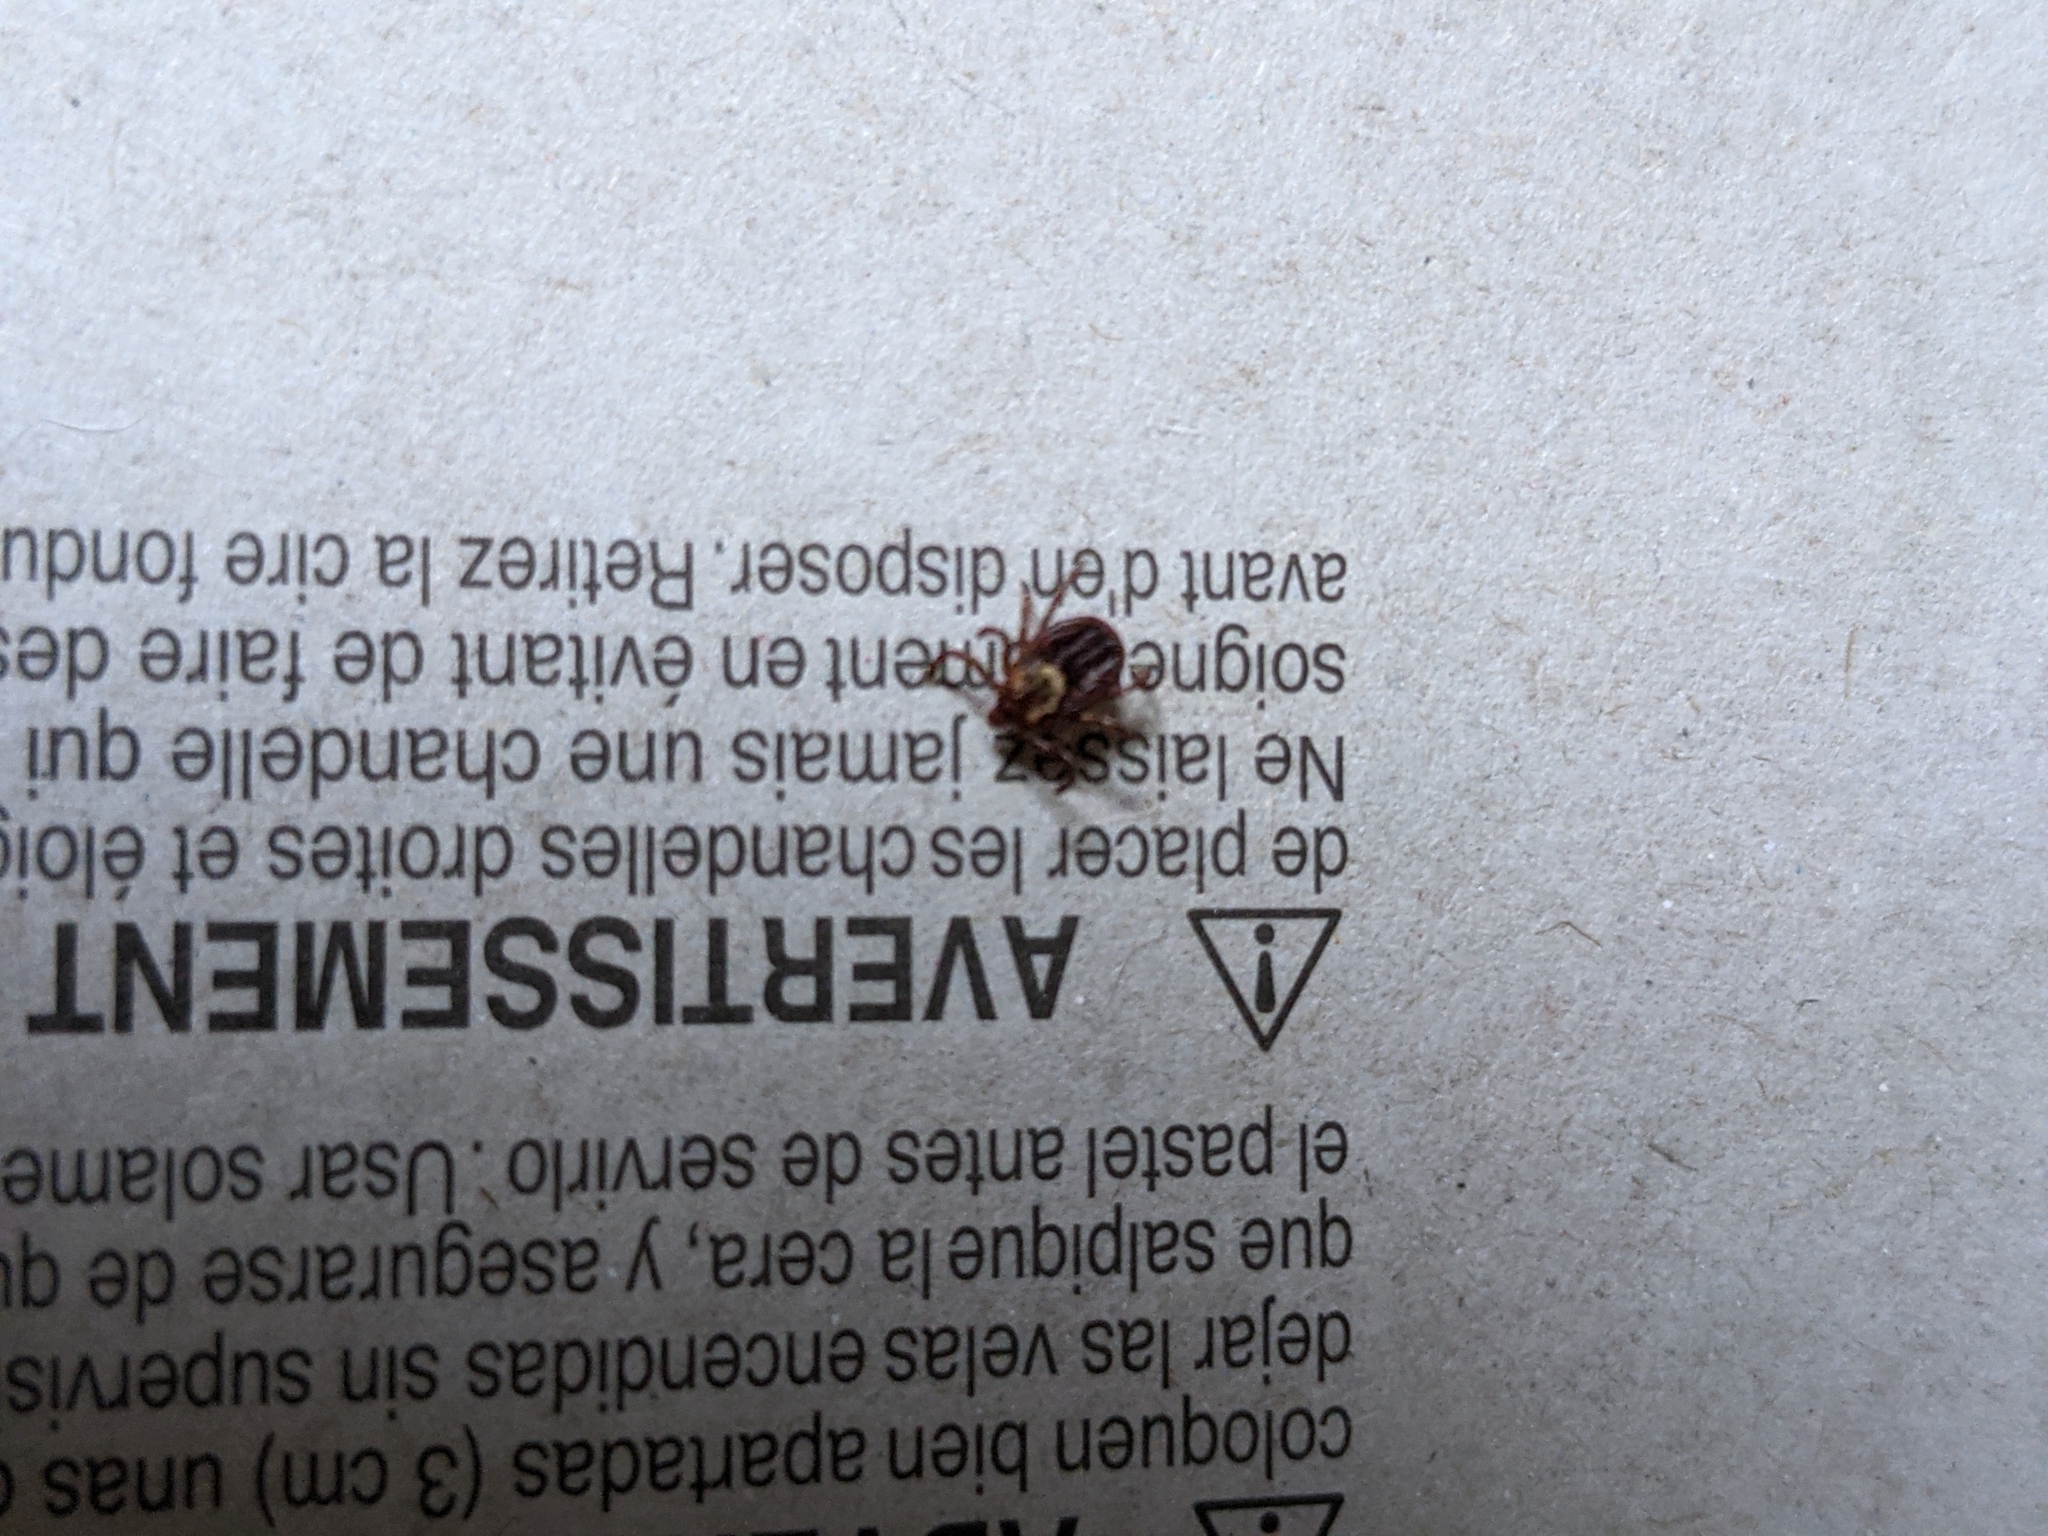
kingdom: Animalia
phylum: Arthropoda
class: Arachnida
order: Ixodida
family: Ixodidae
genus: Dermacentor
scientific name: Dermacentor variabilis
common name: American dog tick
